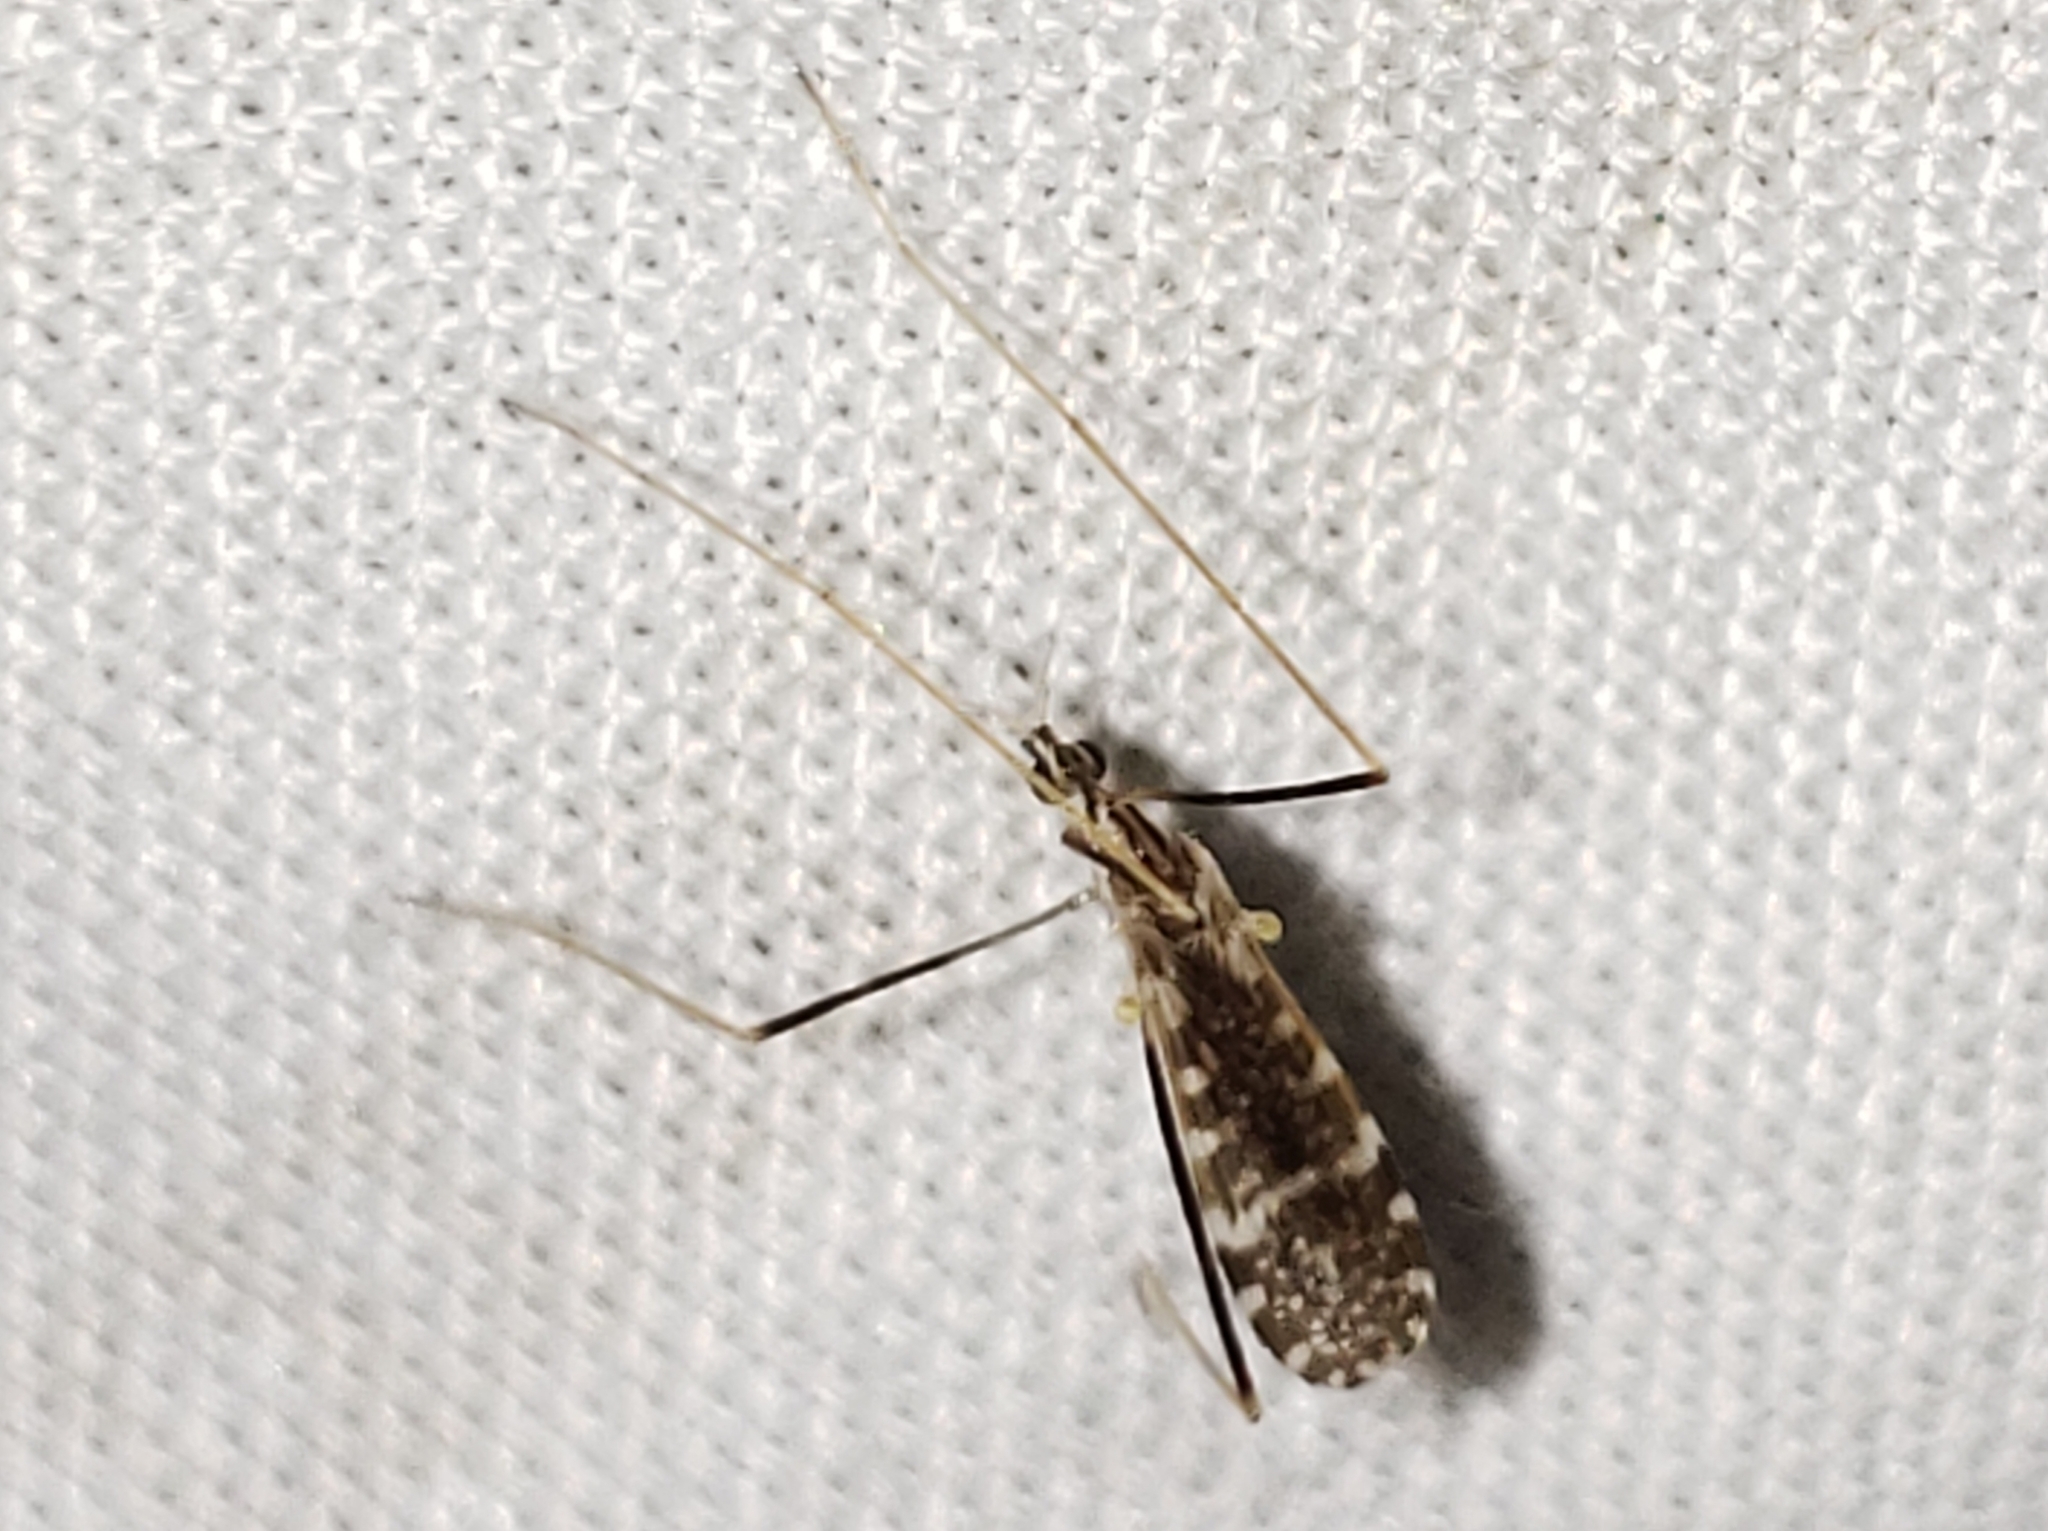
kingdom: Animalia
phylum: Arthropoda
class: Insecta
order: Diptera
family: Limoniidae
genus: Erioptera
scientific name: Erioptera caliptera
